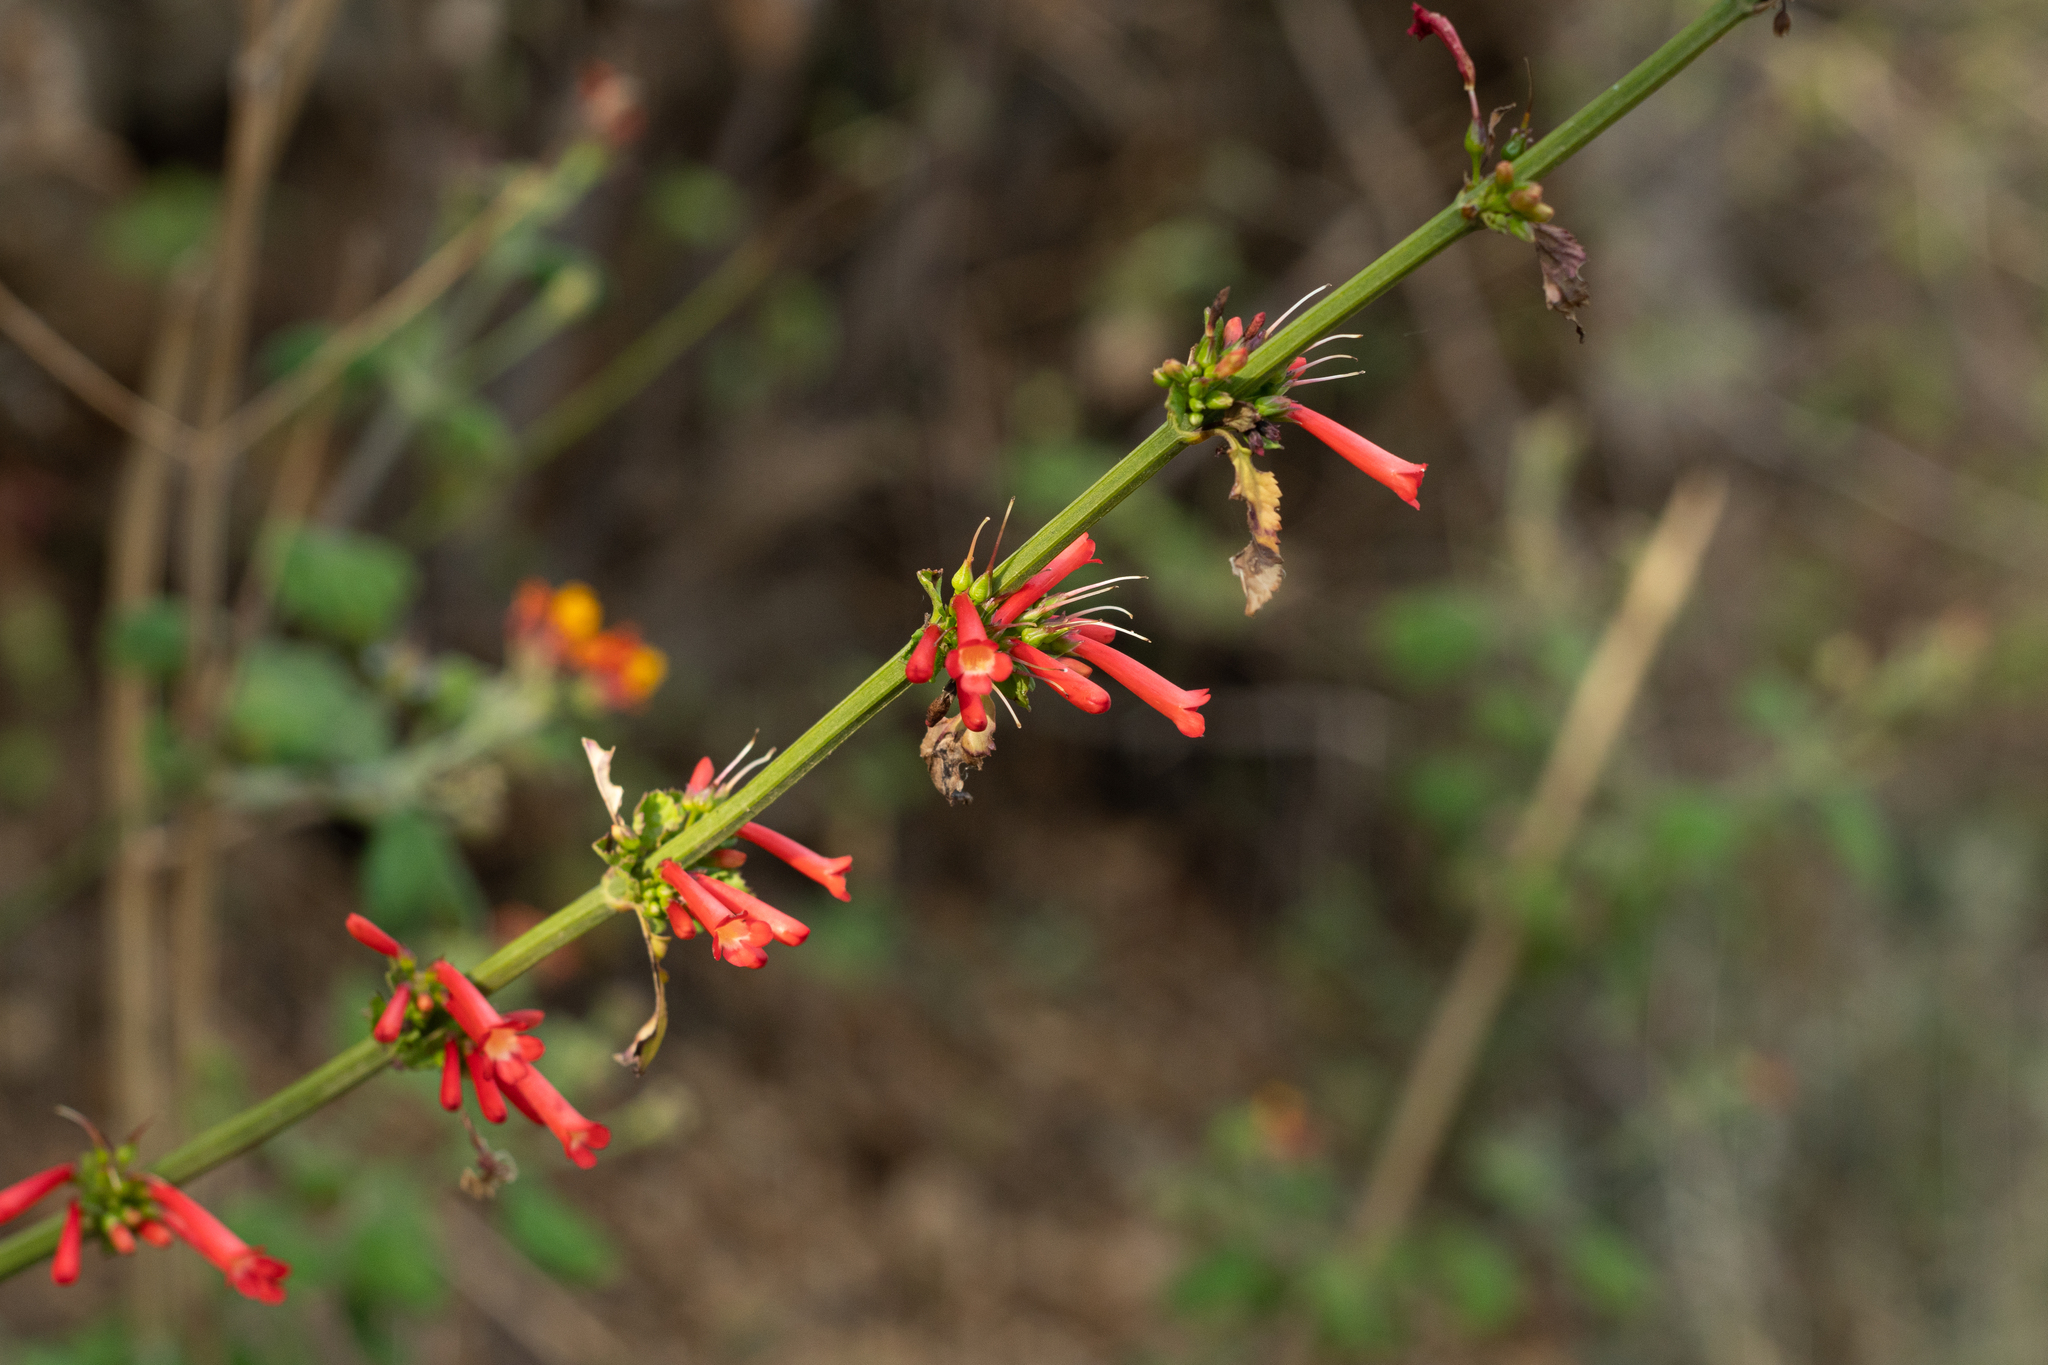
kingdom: Plantae
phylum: Tracheophyta
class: Magnoliopsida
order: Lamiales
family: Plantaginaceae
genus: Russelia
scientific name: Russelia sarmentosa
